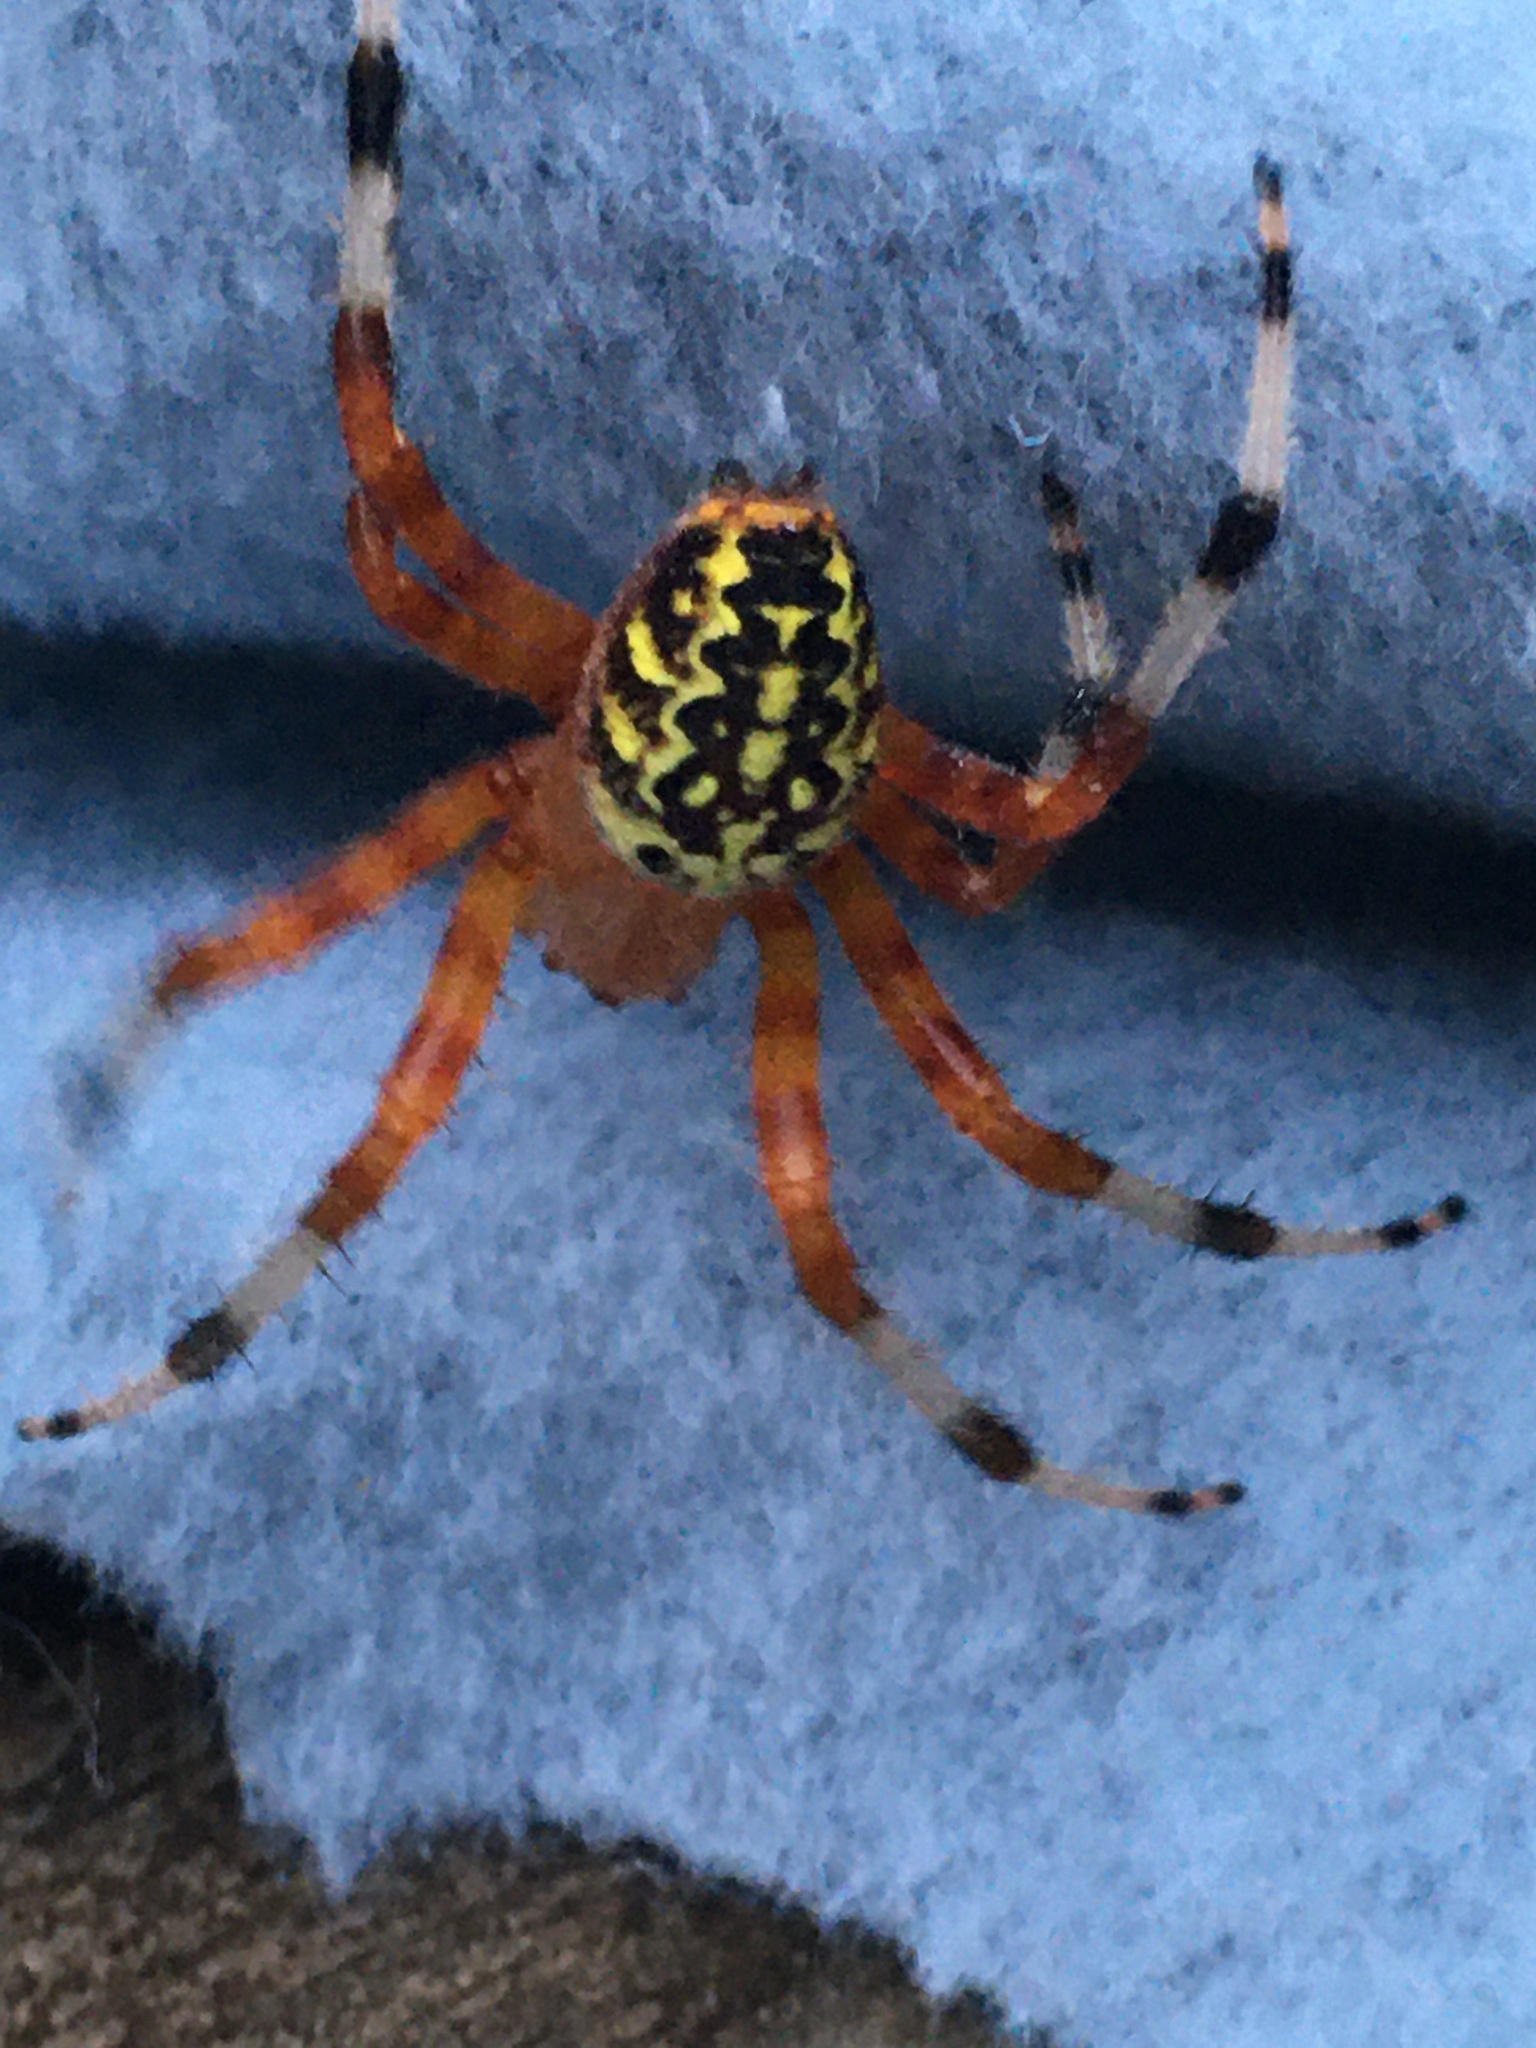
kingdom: Animalia
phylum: Arthropoda
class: Arachnida
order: Araneae
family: Araneidae
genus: Araneus
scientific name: Araneus marmoreus
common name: Marbled orbweaver
